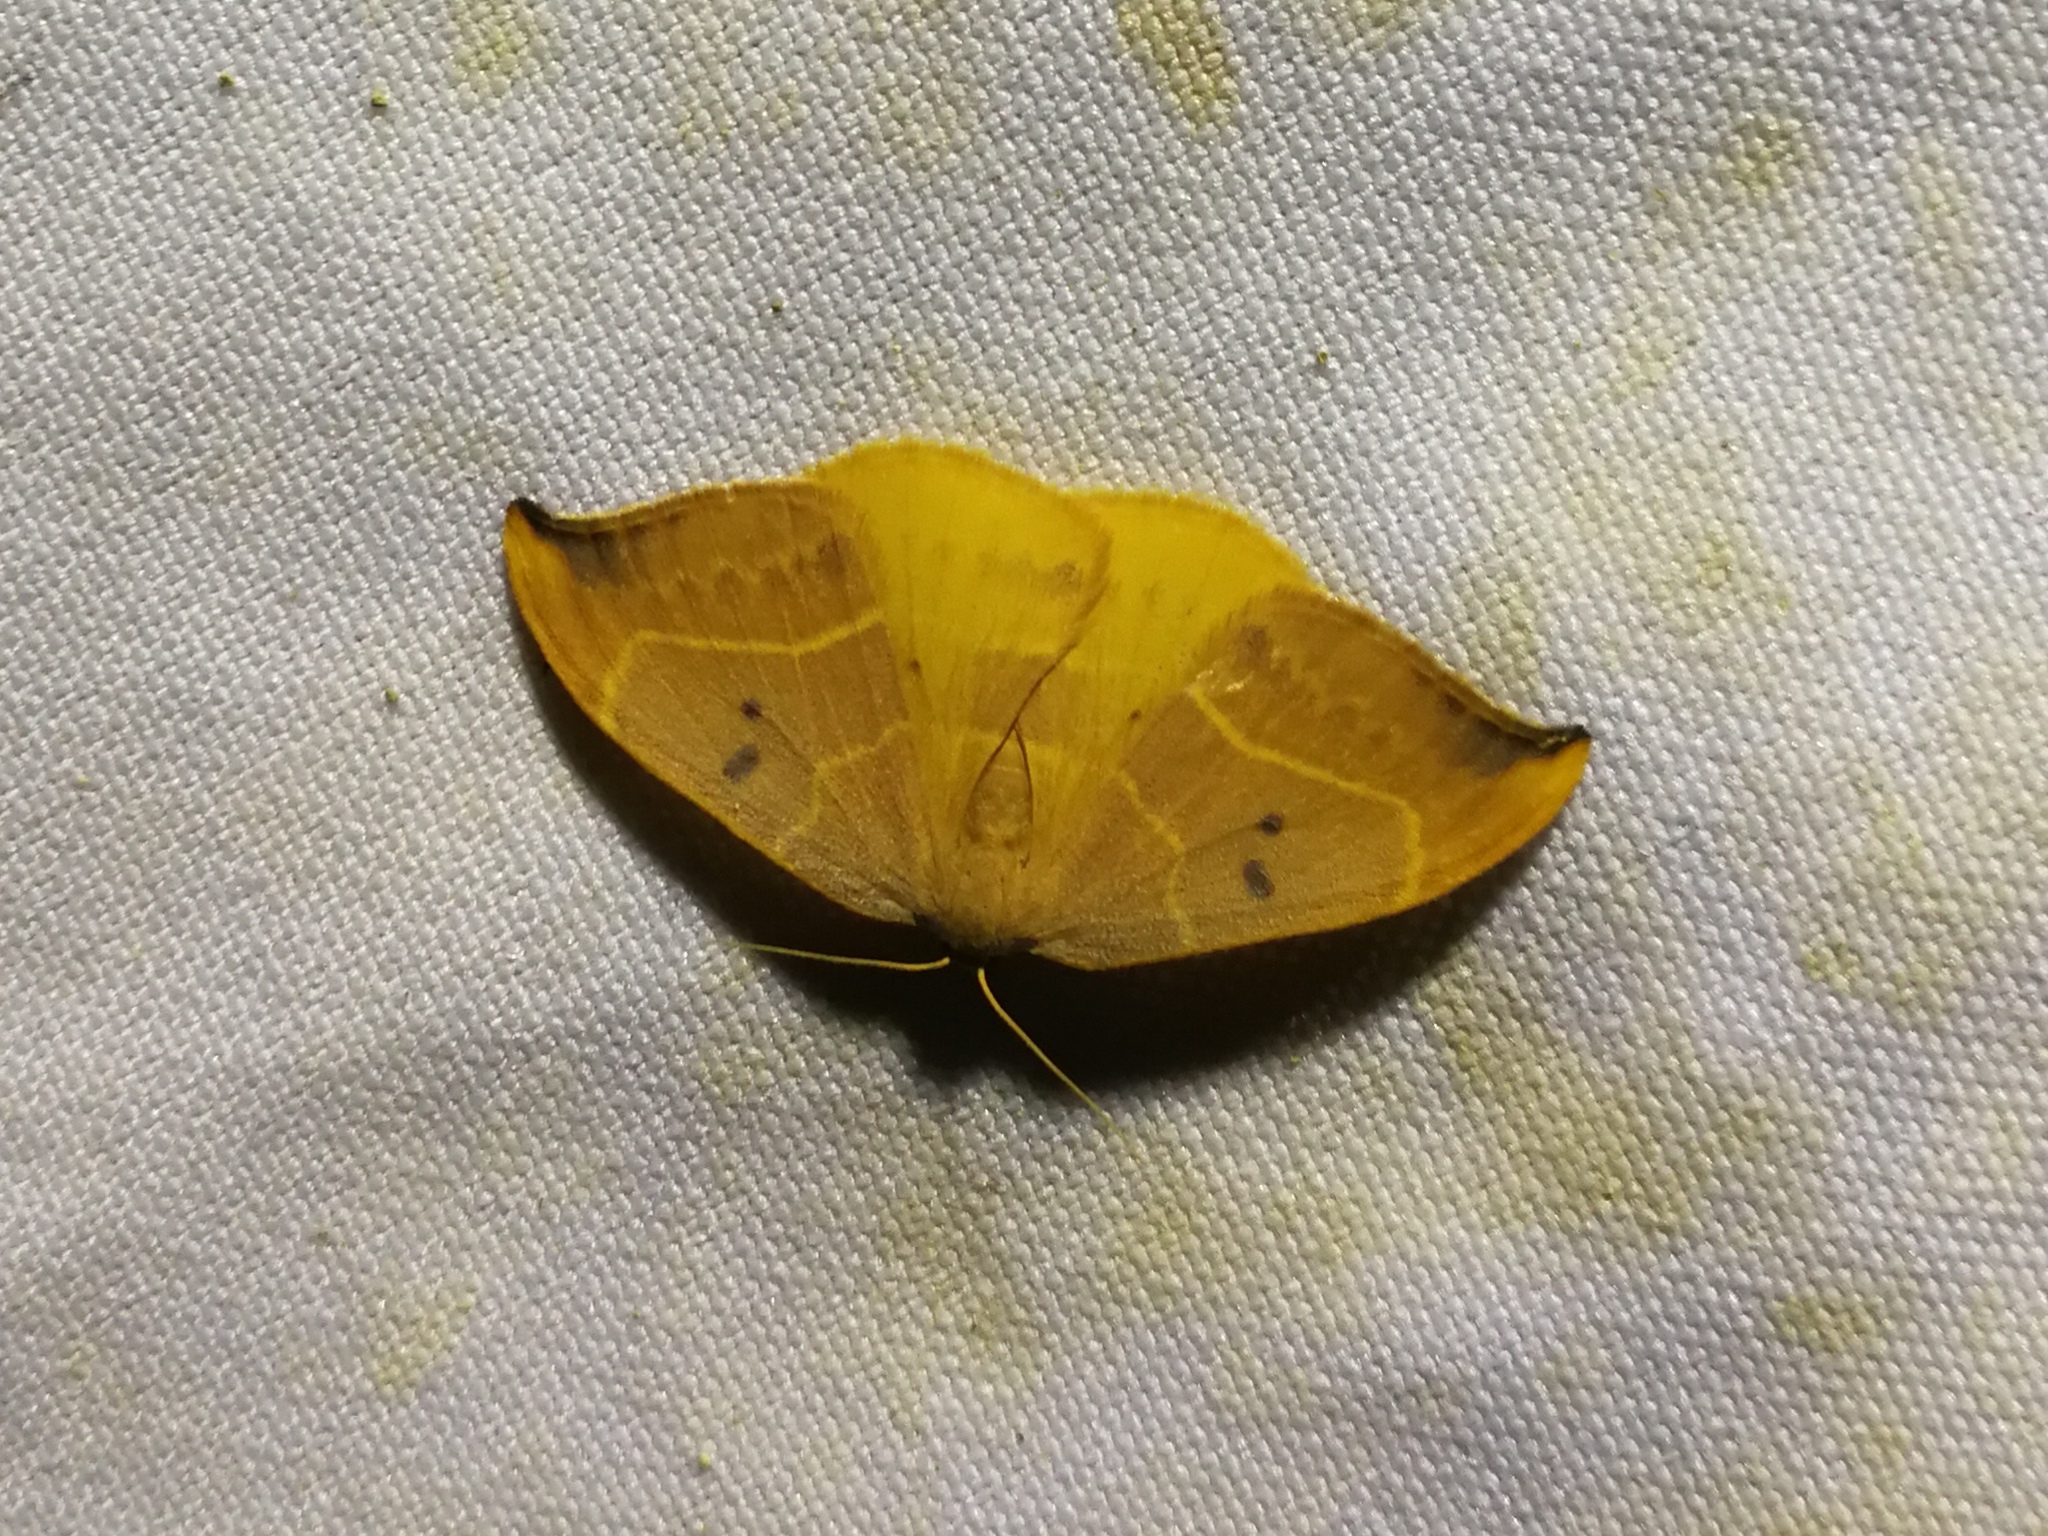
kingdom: Animalia
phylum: Arthropoda
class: Insecta
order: Lepidoptera
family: Drepanidae
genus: Watsonalla
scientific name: Watsonalla binaria
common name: Oak hook-tip
